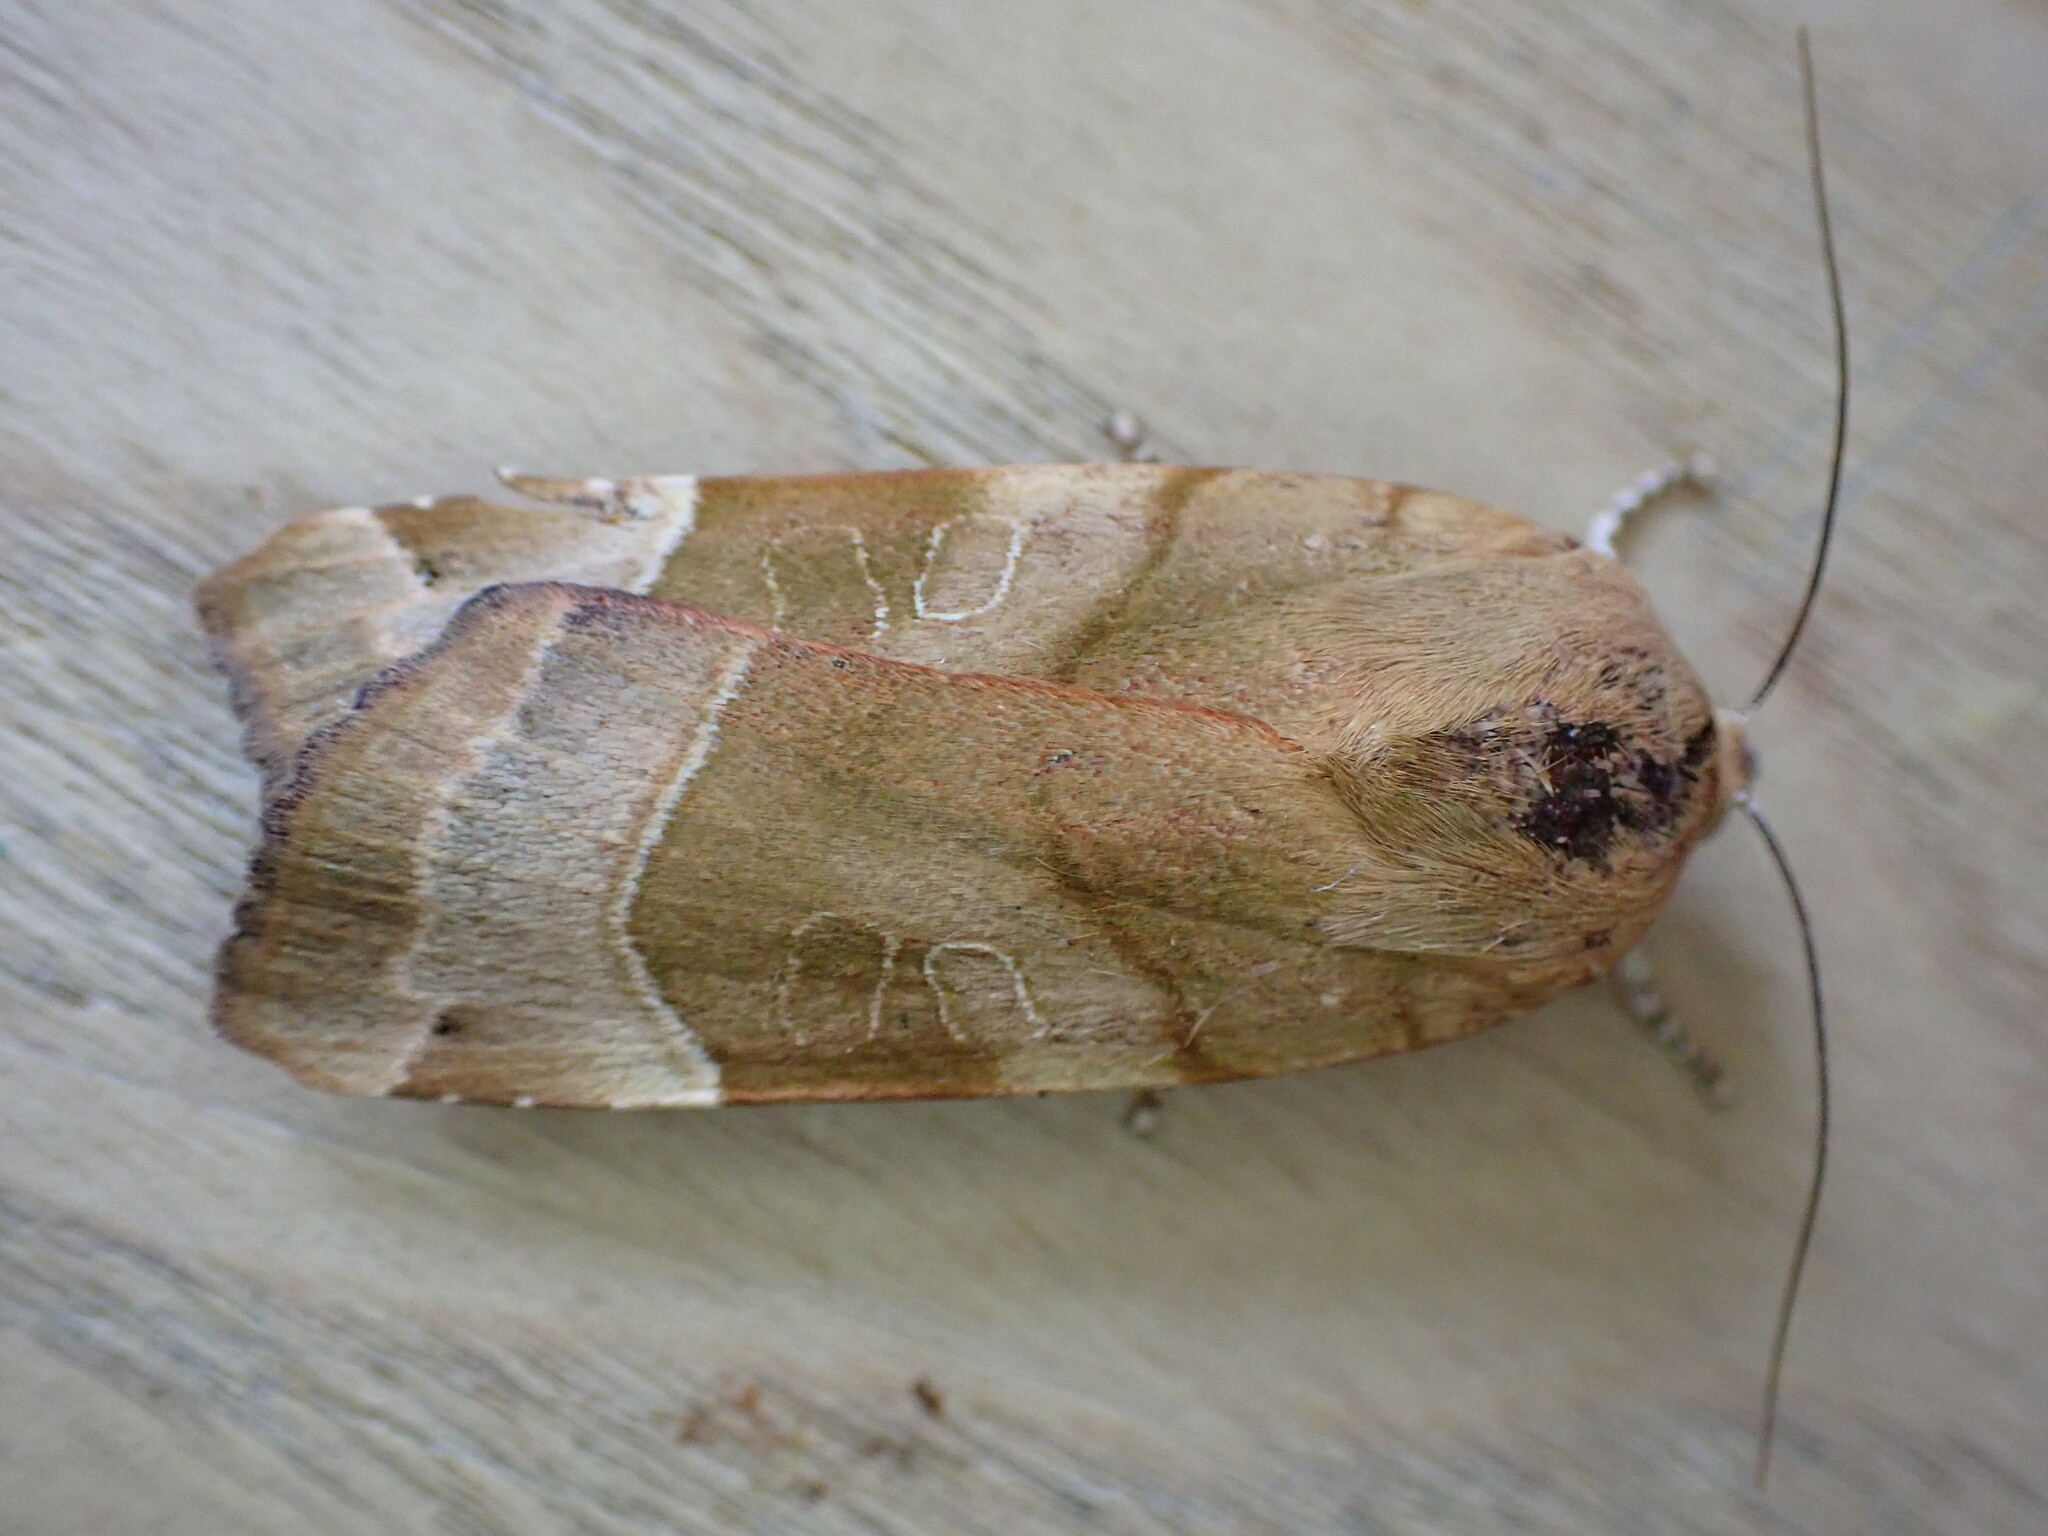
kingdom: Animalia
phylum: Arthropoda
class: Insecta
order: Lepidoptera
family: Noctuidae
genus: Noctua
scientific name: Noctua fimbriata
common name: Broad-bordered yellow underwing
